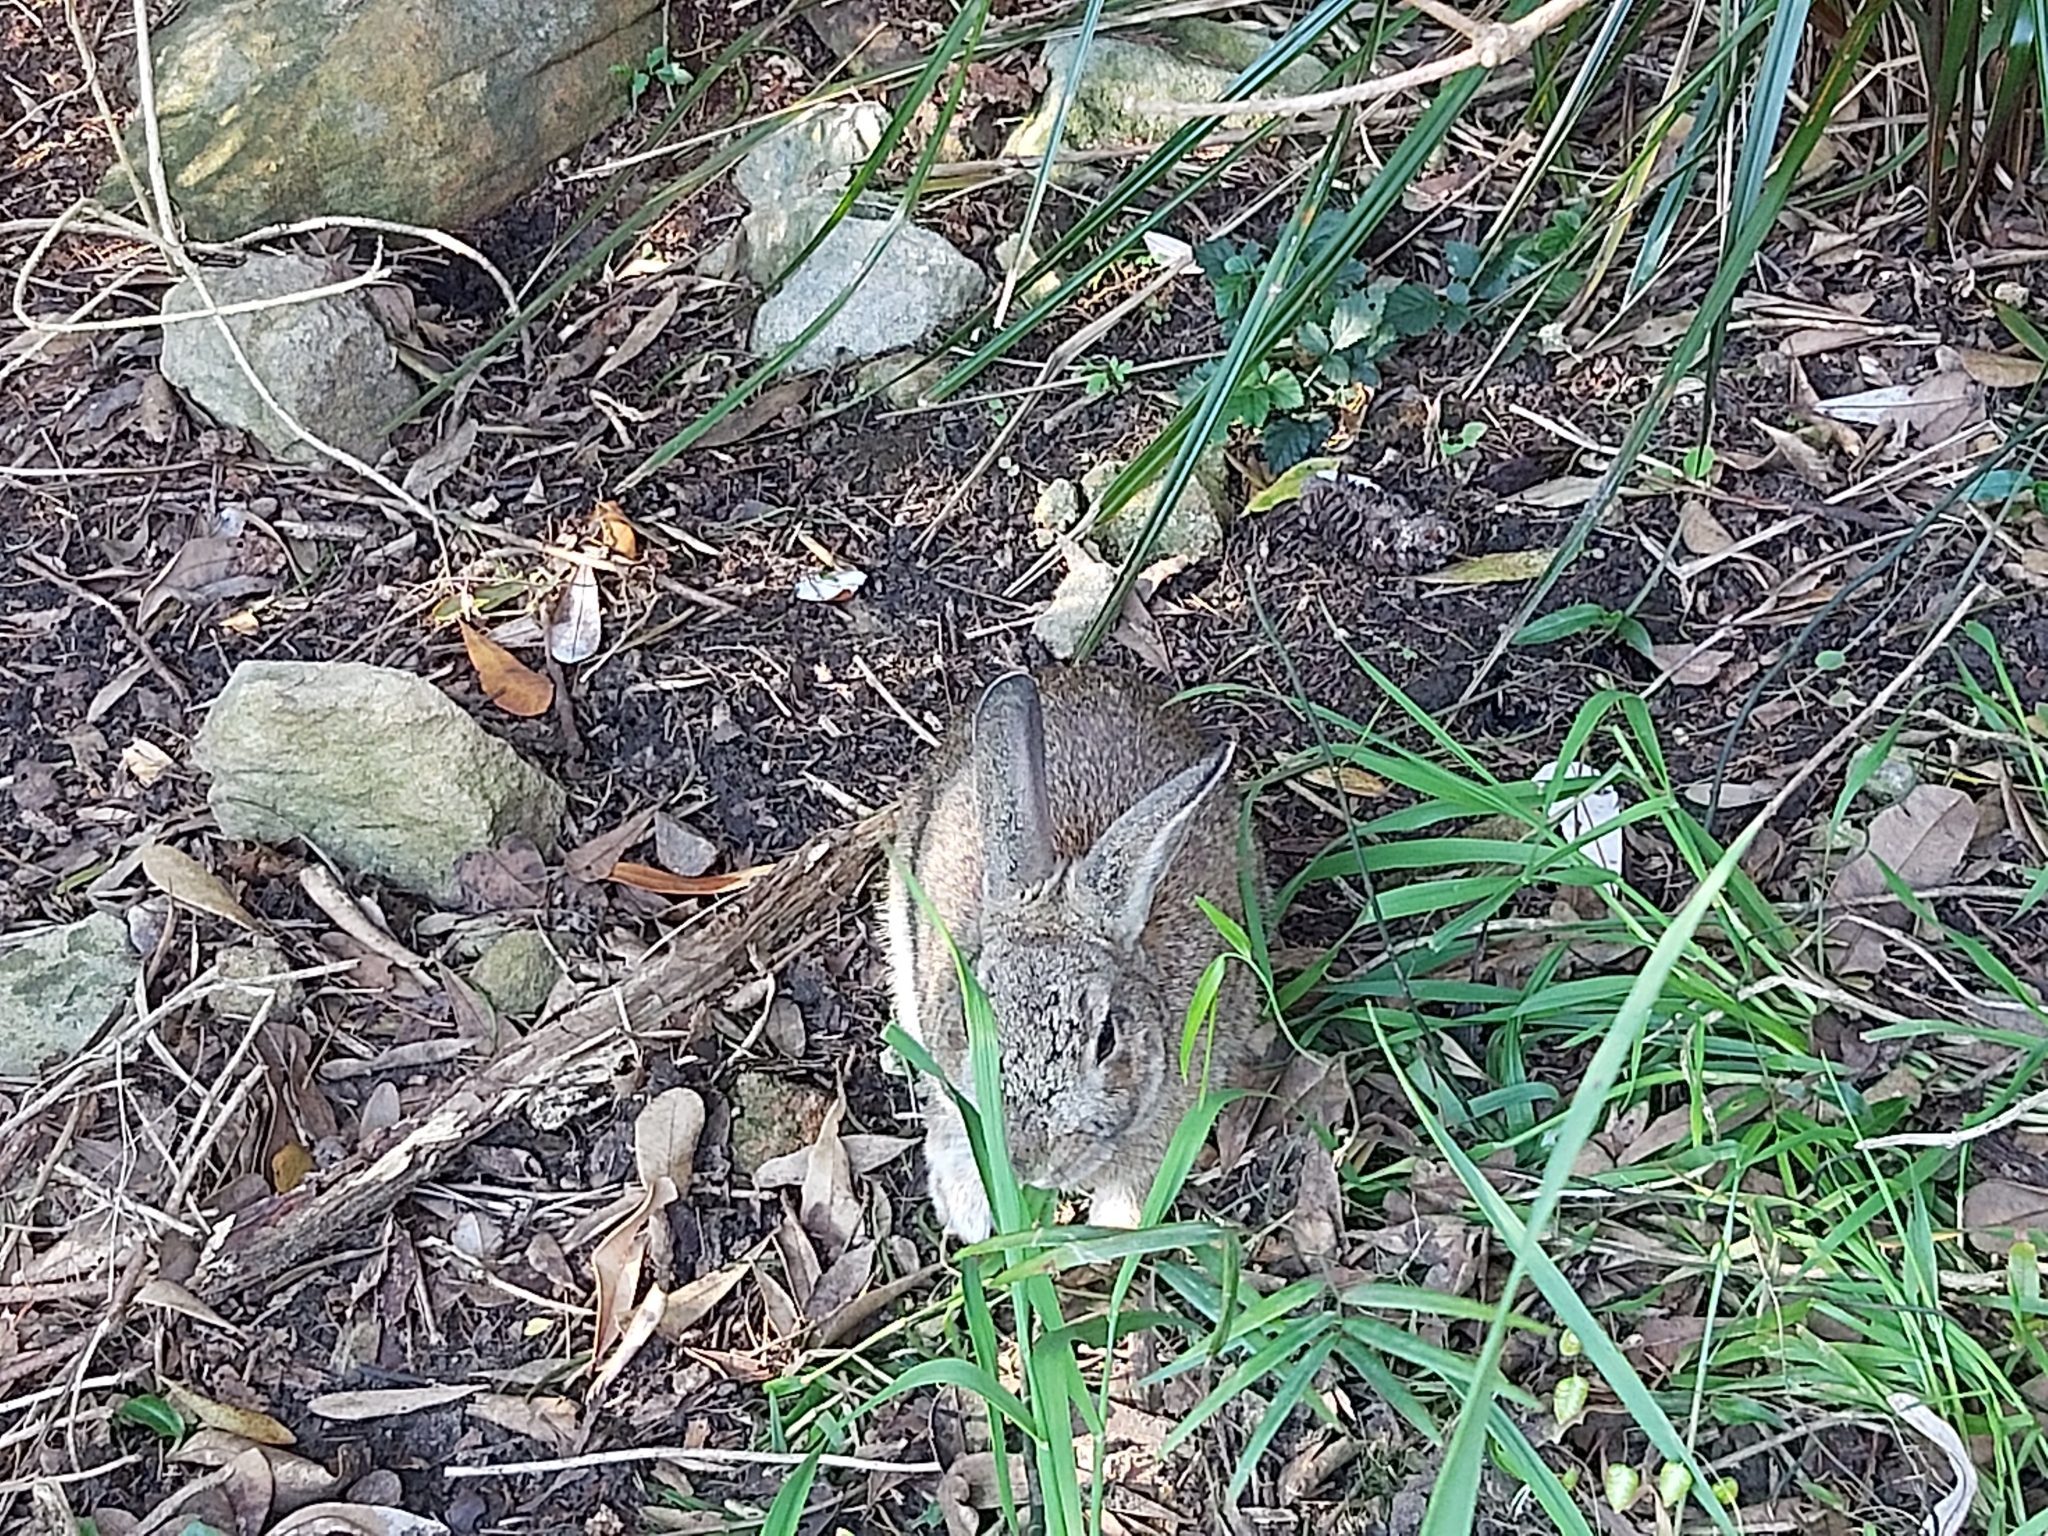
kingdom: Animalia
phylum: Chordata
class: Mammalia
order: Lagomorpha
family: Leporidae
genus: Oryctolagus
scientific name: Oryctolagus cuniculus
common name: European rabbit
